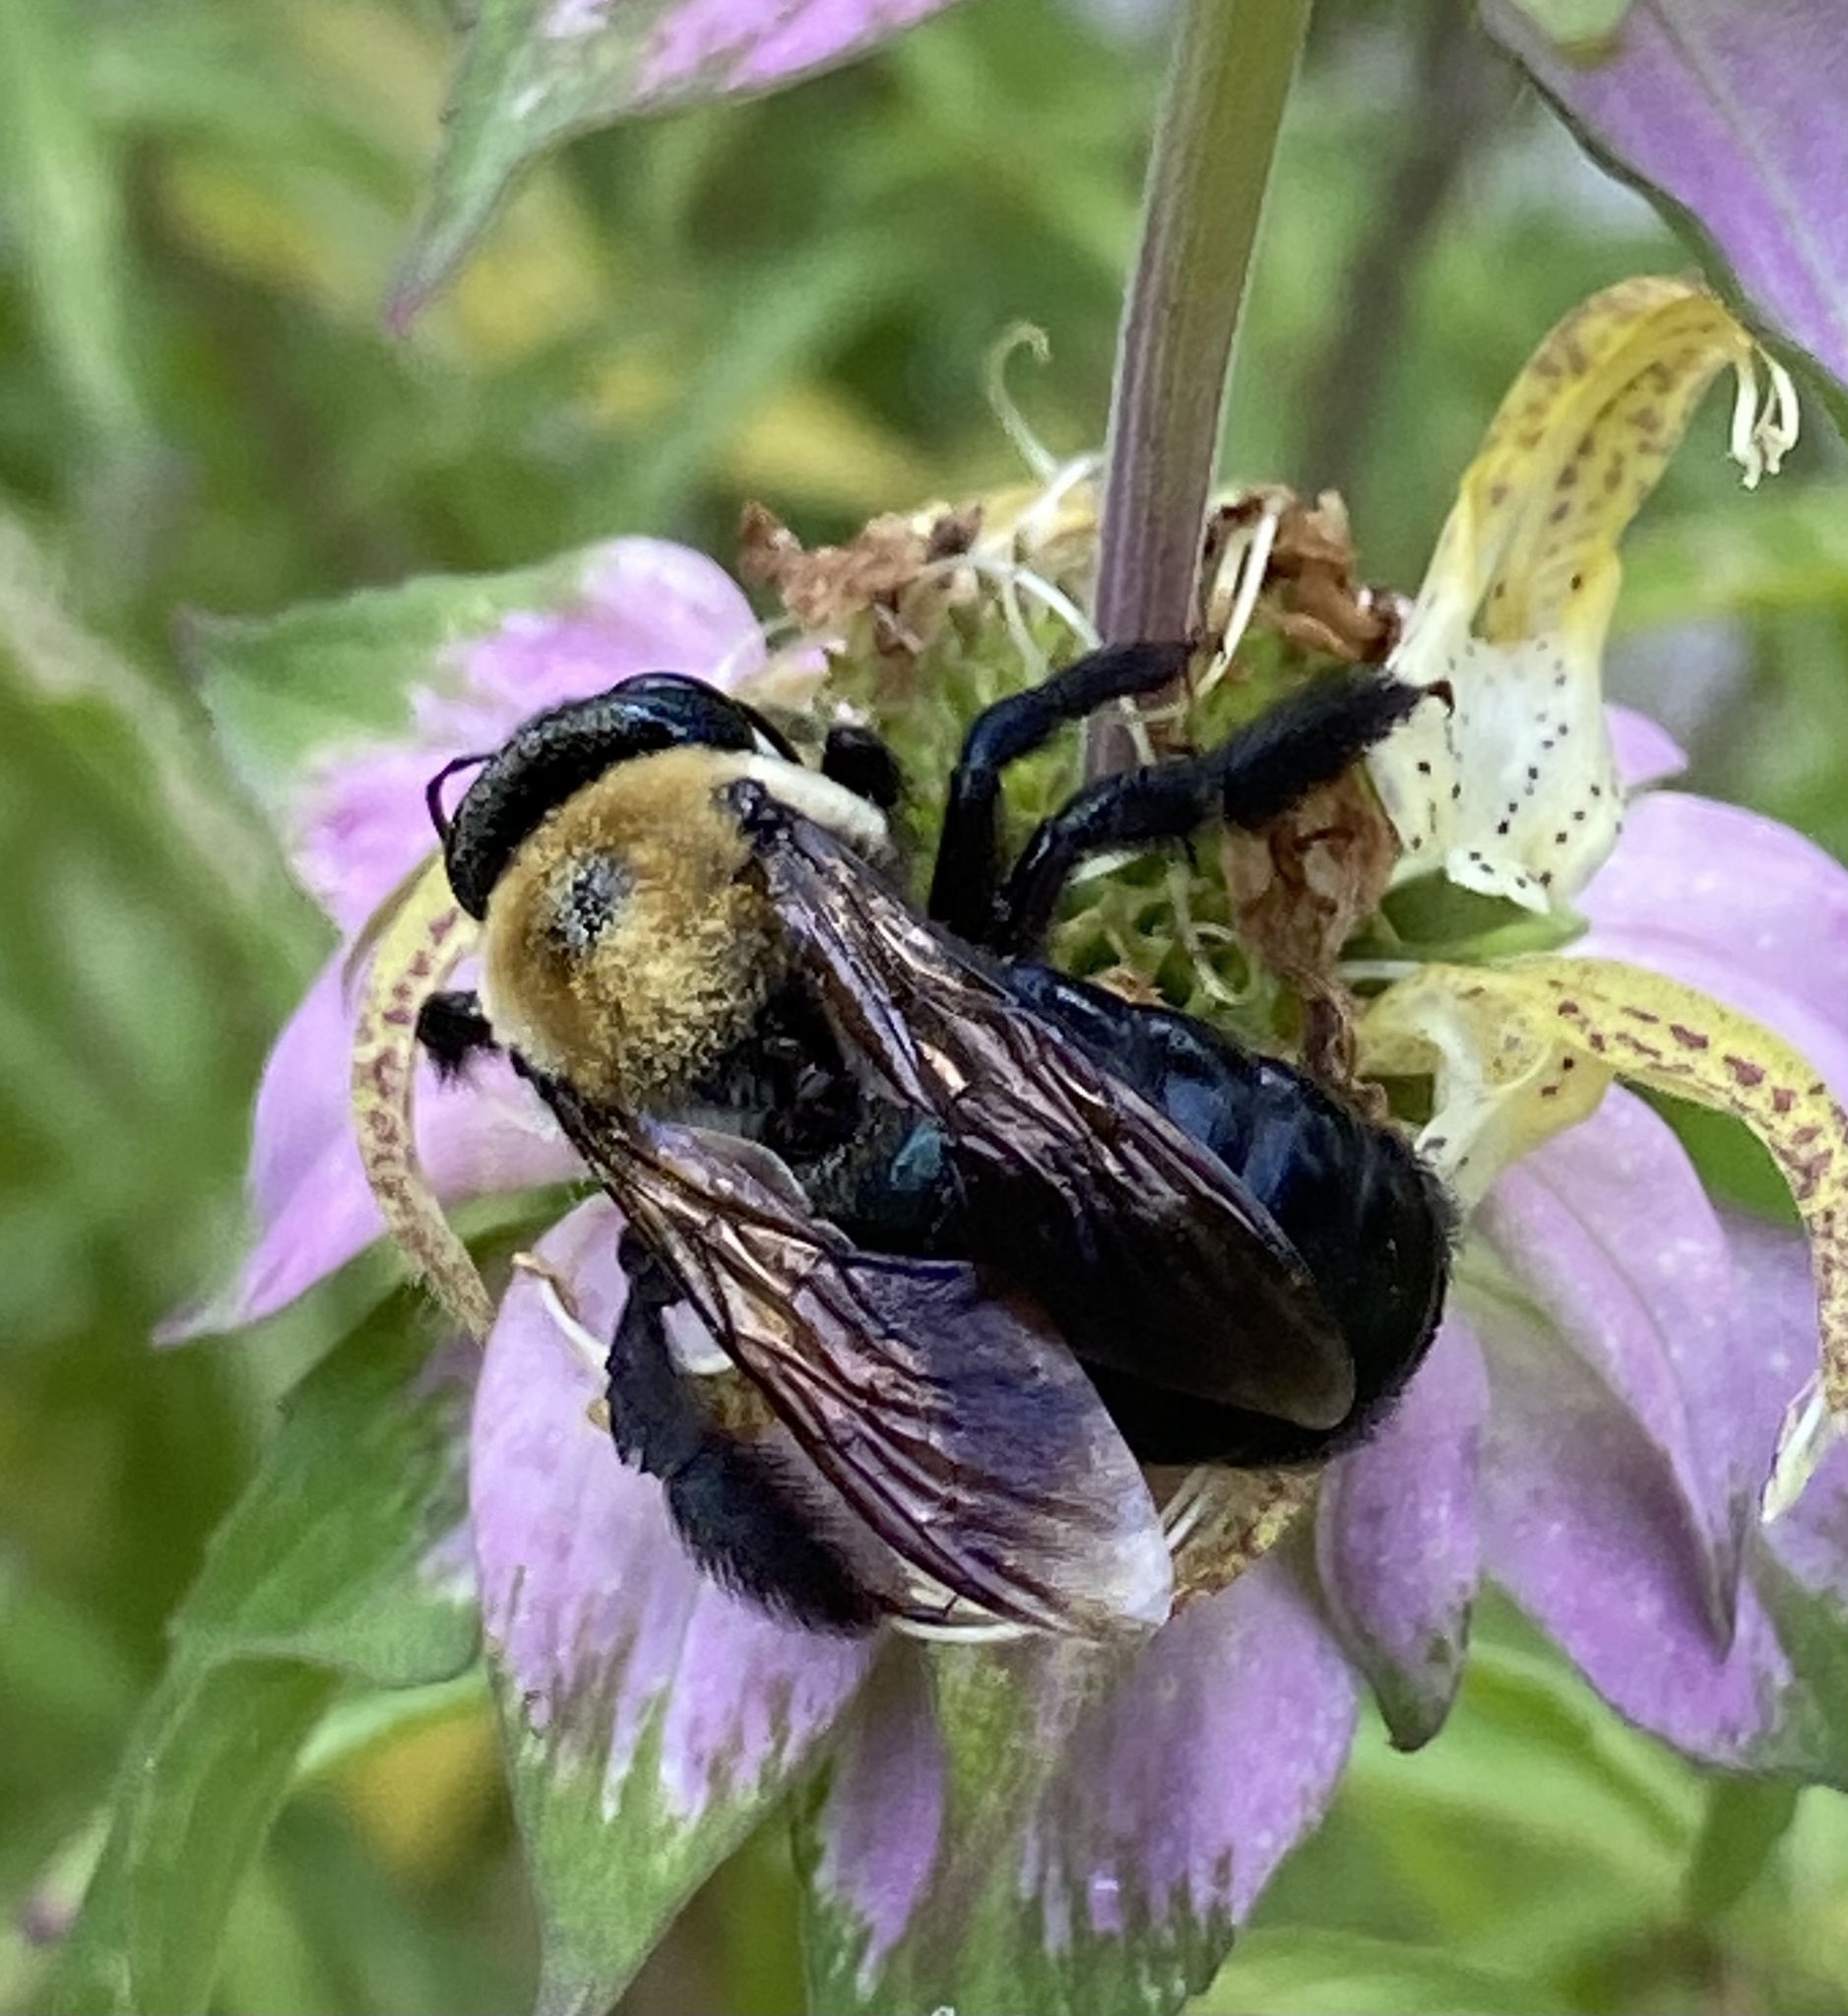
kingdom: Animalia
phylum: Arthropoda
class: Insecta
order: Hymenoptera
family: Apidae
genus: Xylocopa
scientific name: Xylocopa virginica
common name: Carpenter bee
